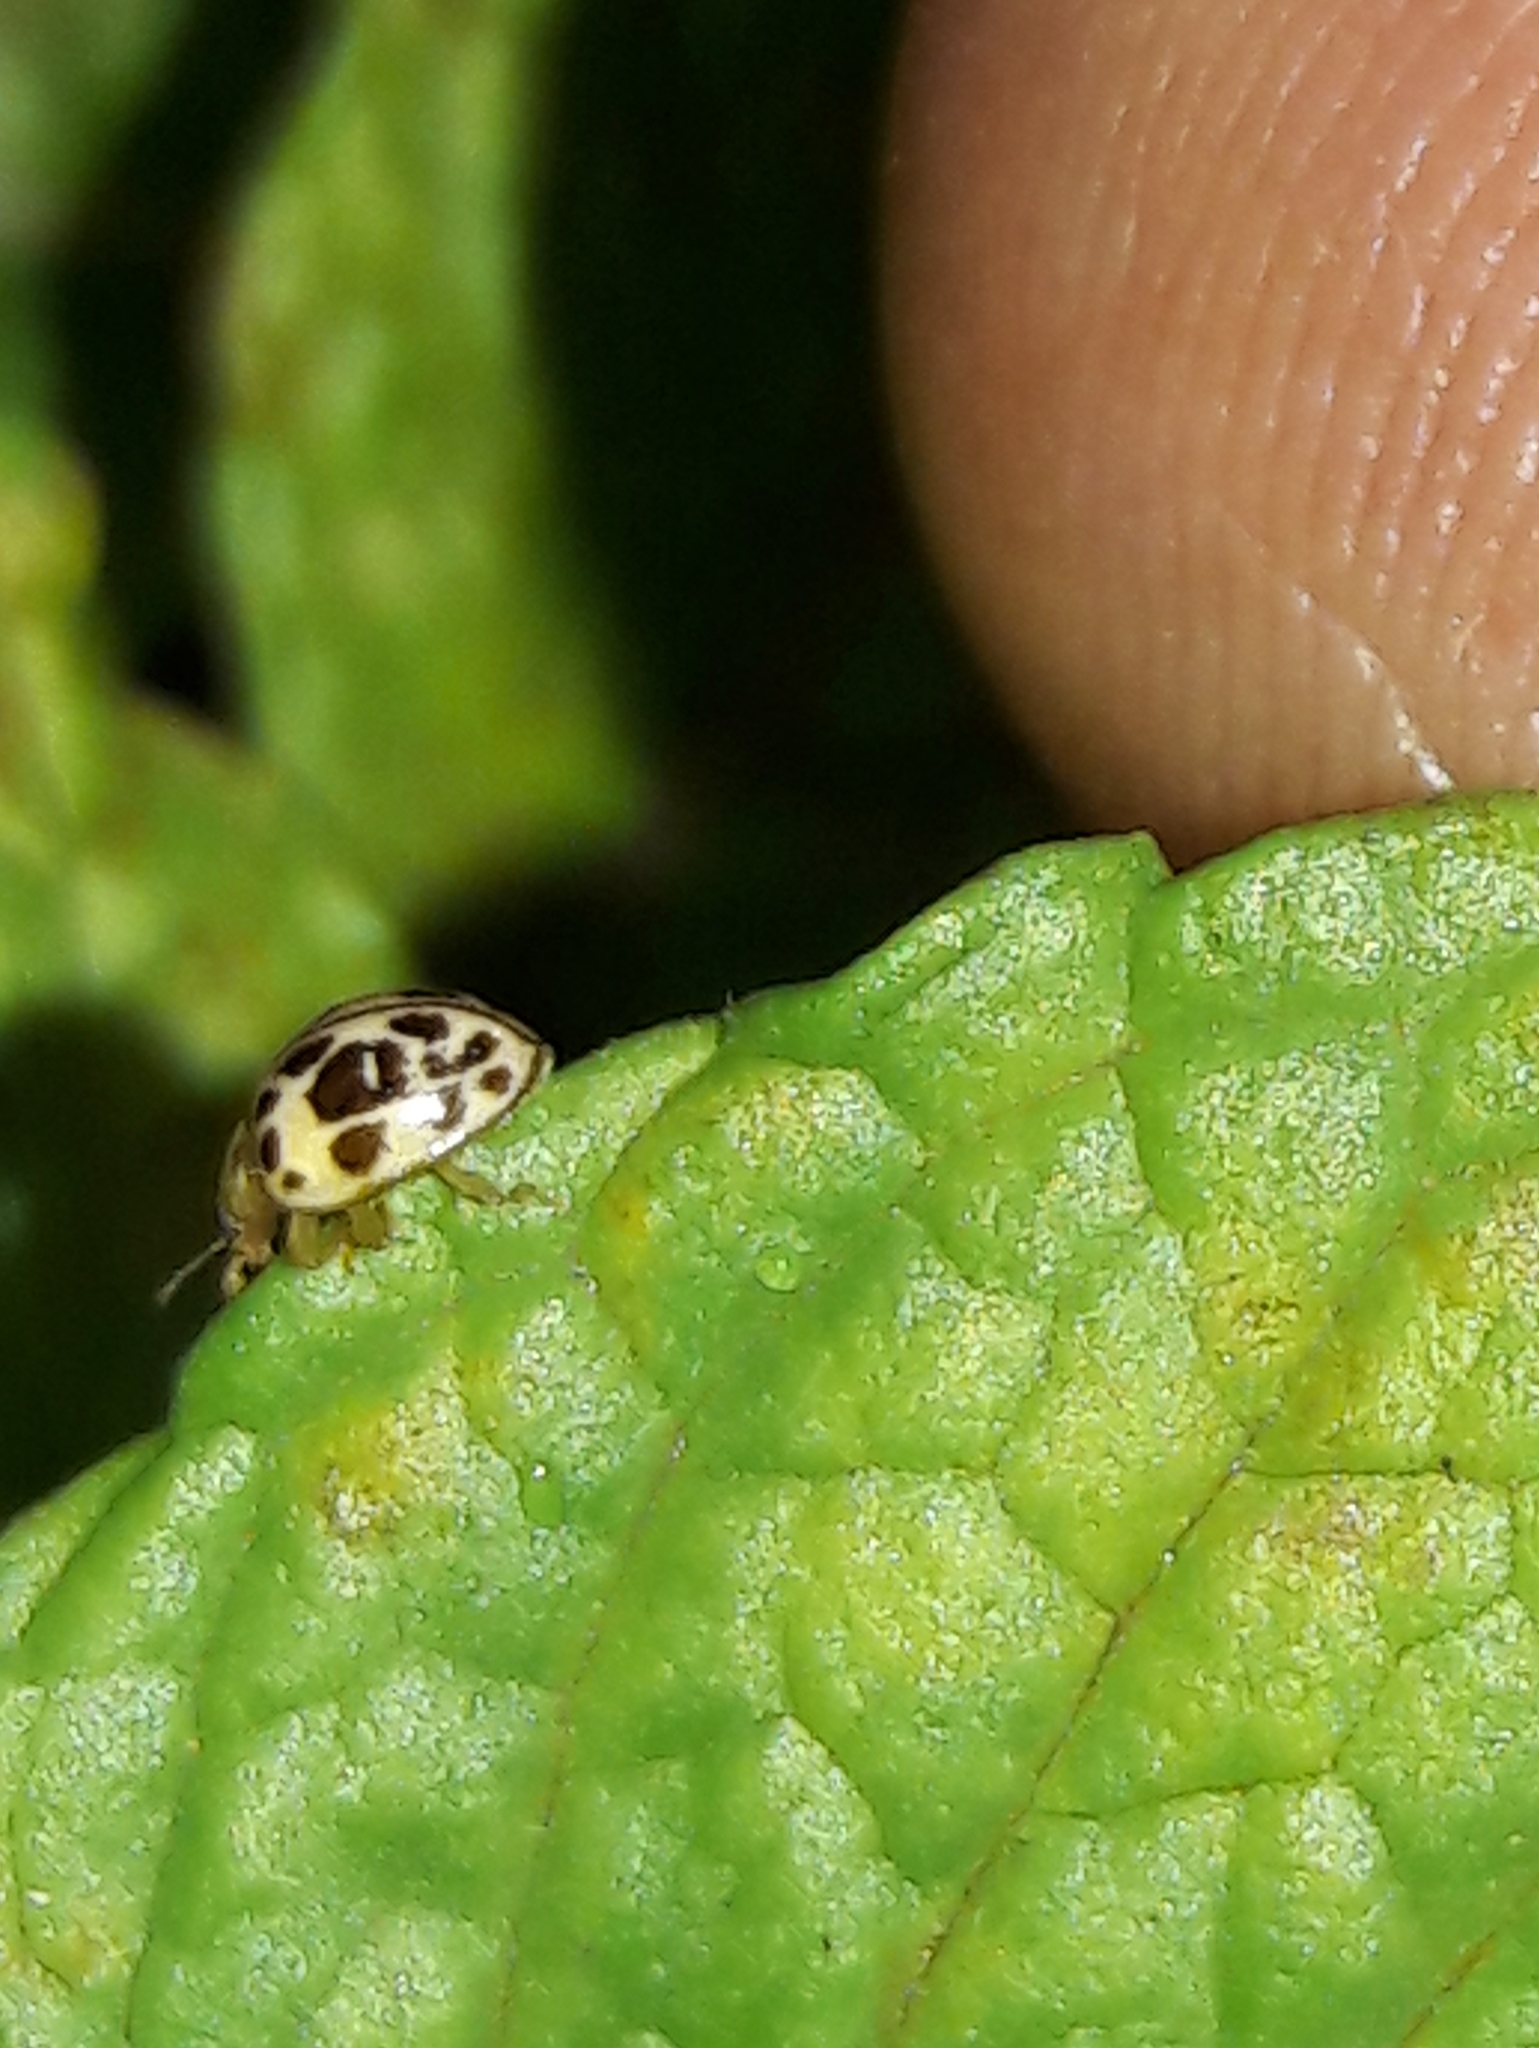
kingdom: Animalia
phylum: Arthropoda
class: Insecta
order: Coleoptera
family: Coccinellidae
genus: Psyllobora
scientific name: Psyllobora
